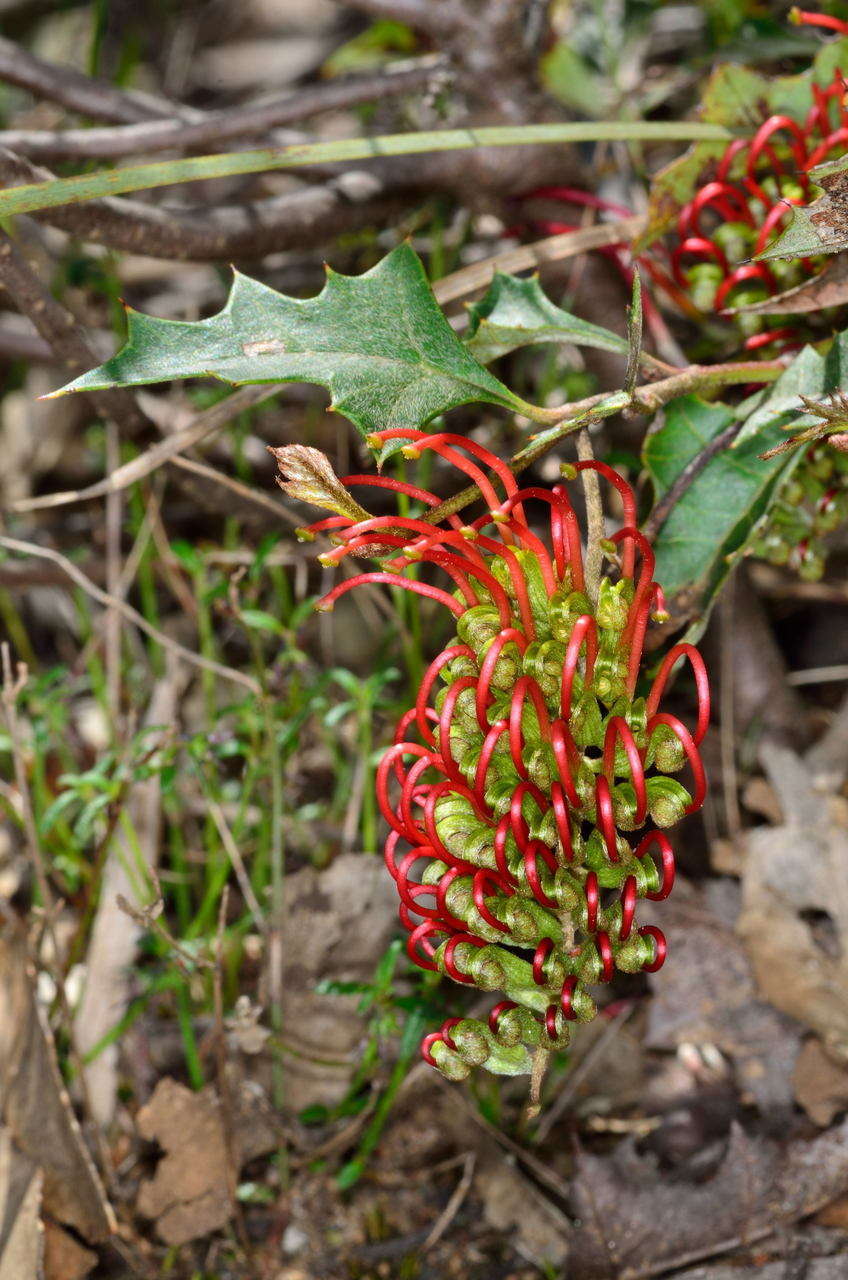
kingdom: Plantae
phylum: Tracheophyta
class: Magnoliopsida
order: Proteales
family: Proteaceae
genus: Grevillea
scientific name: Grevillea steiglitziana
